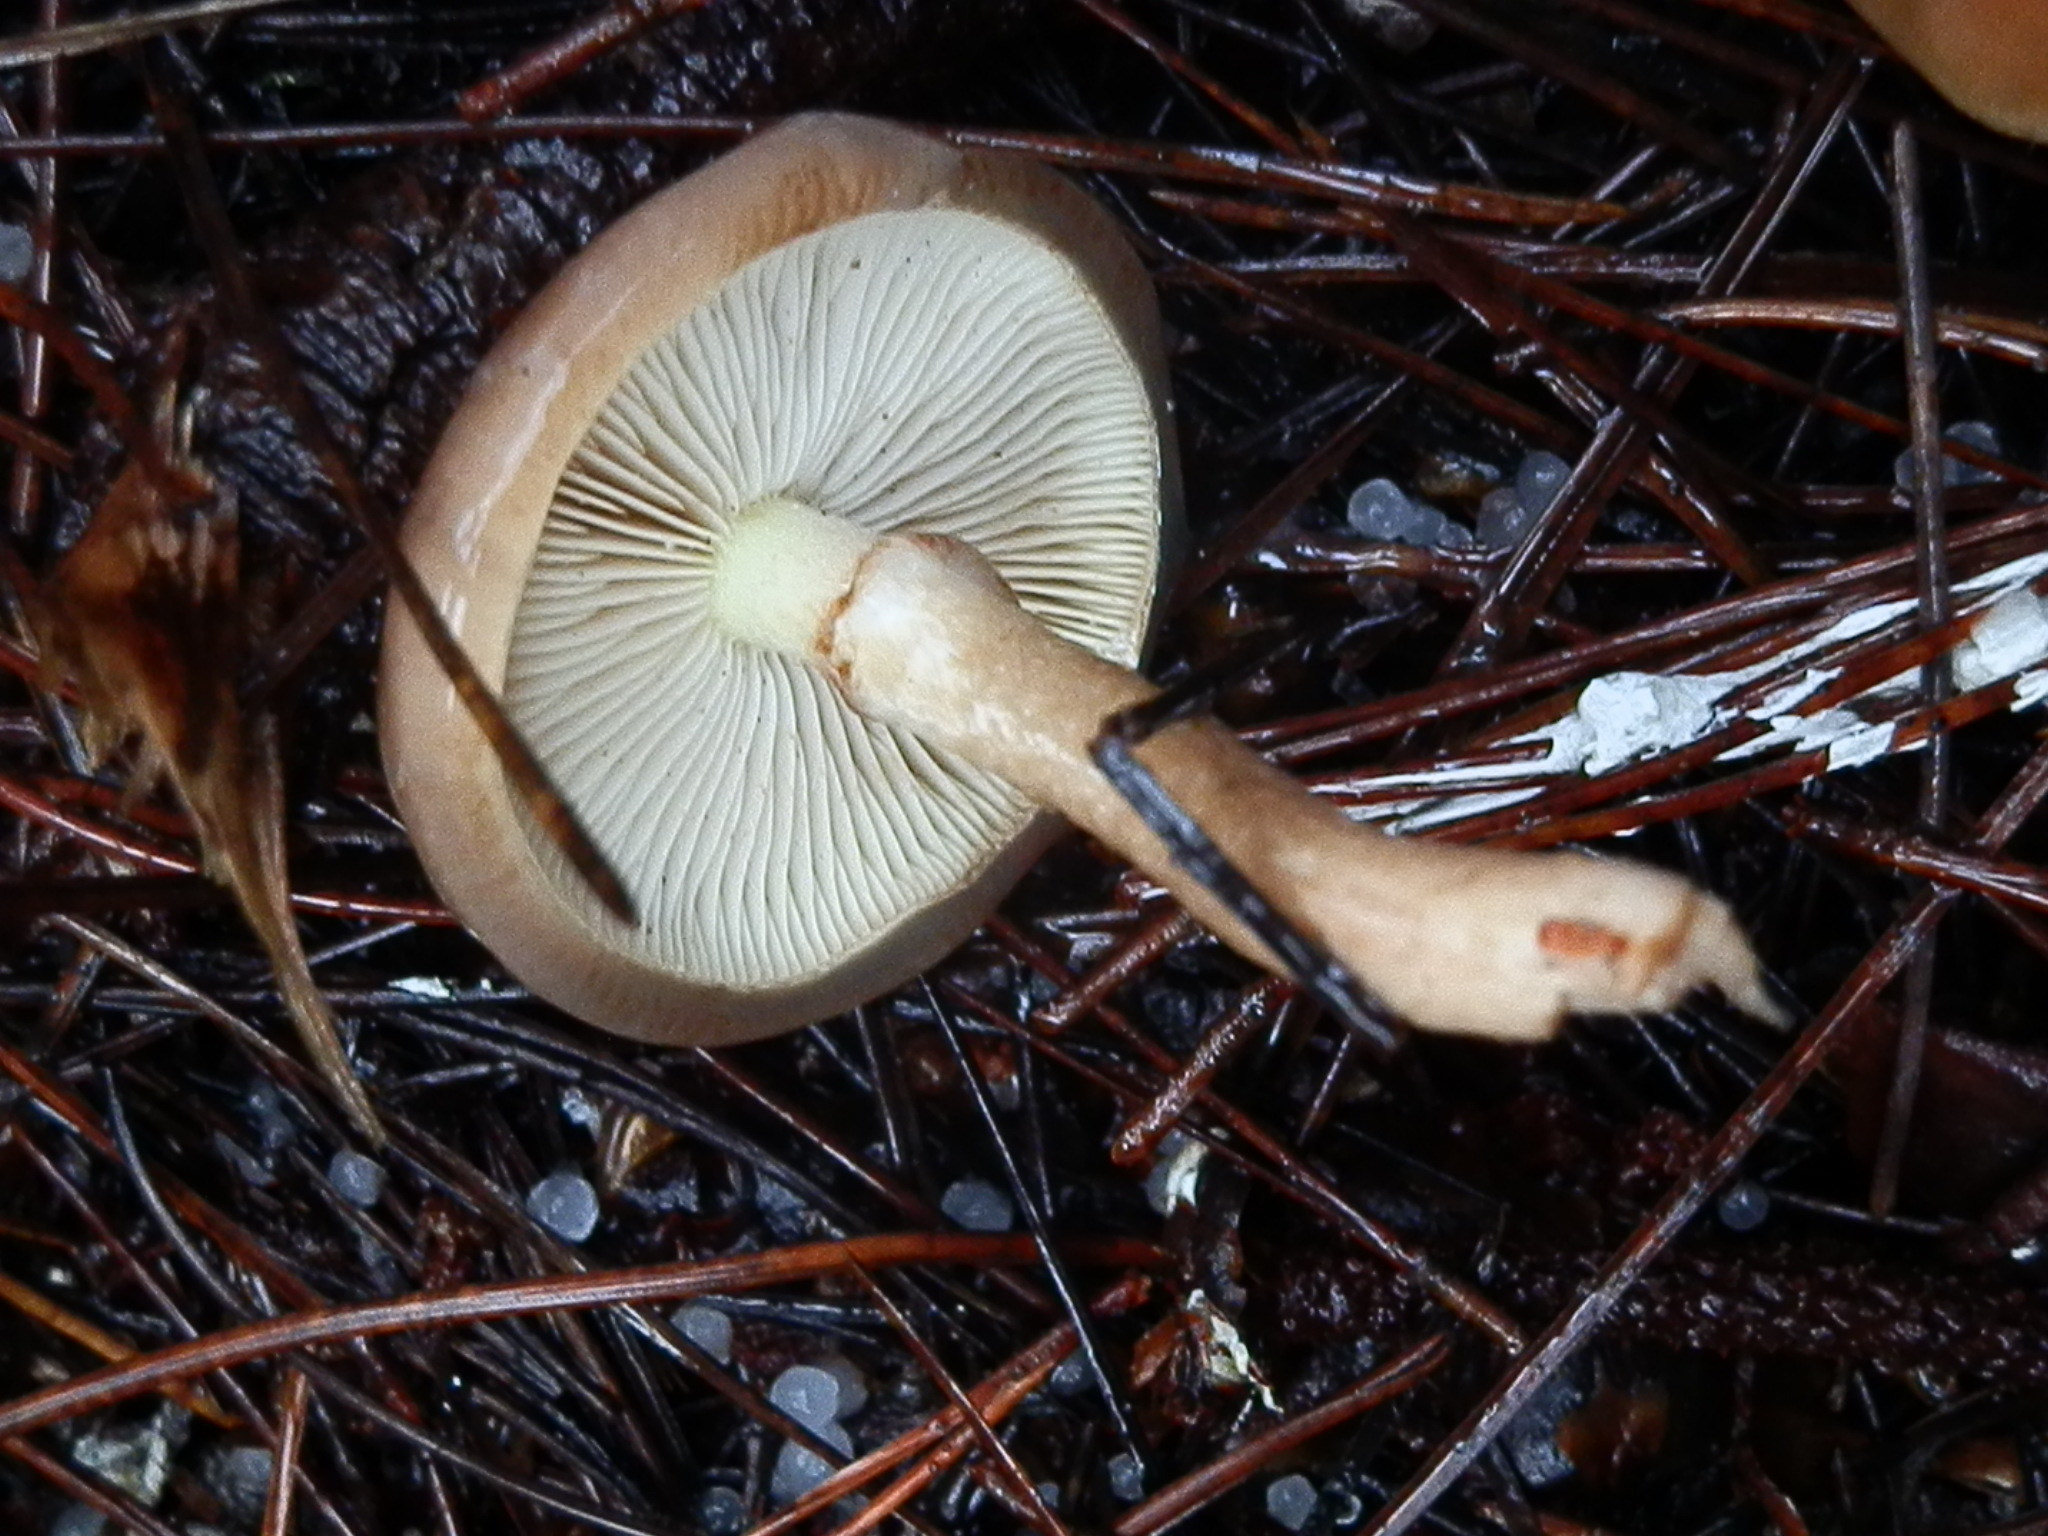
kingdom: Fungi
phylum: Basidiomycota
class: Agaricomycetes
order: Agaricales
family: Strophariaceae
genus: Pholiota
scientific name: Pholiota velaglutinosa
